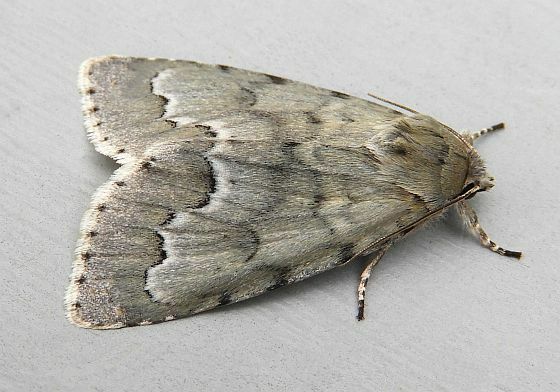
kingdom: Animalia
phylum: Arthropoda
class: Insecta
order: Lepidoptera
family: Noctuidae
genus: Acronicta
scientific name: Acronicta innotata
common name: Unmarked dagger
